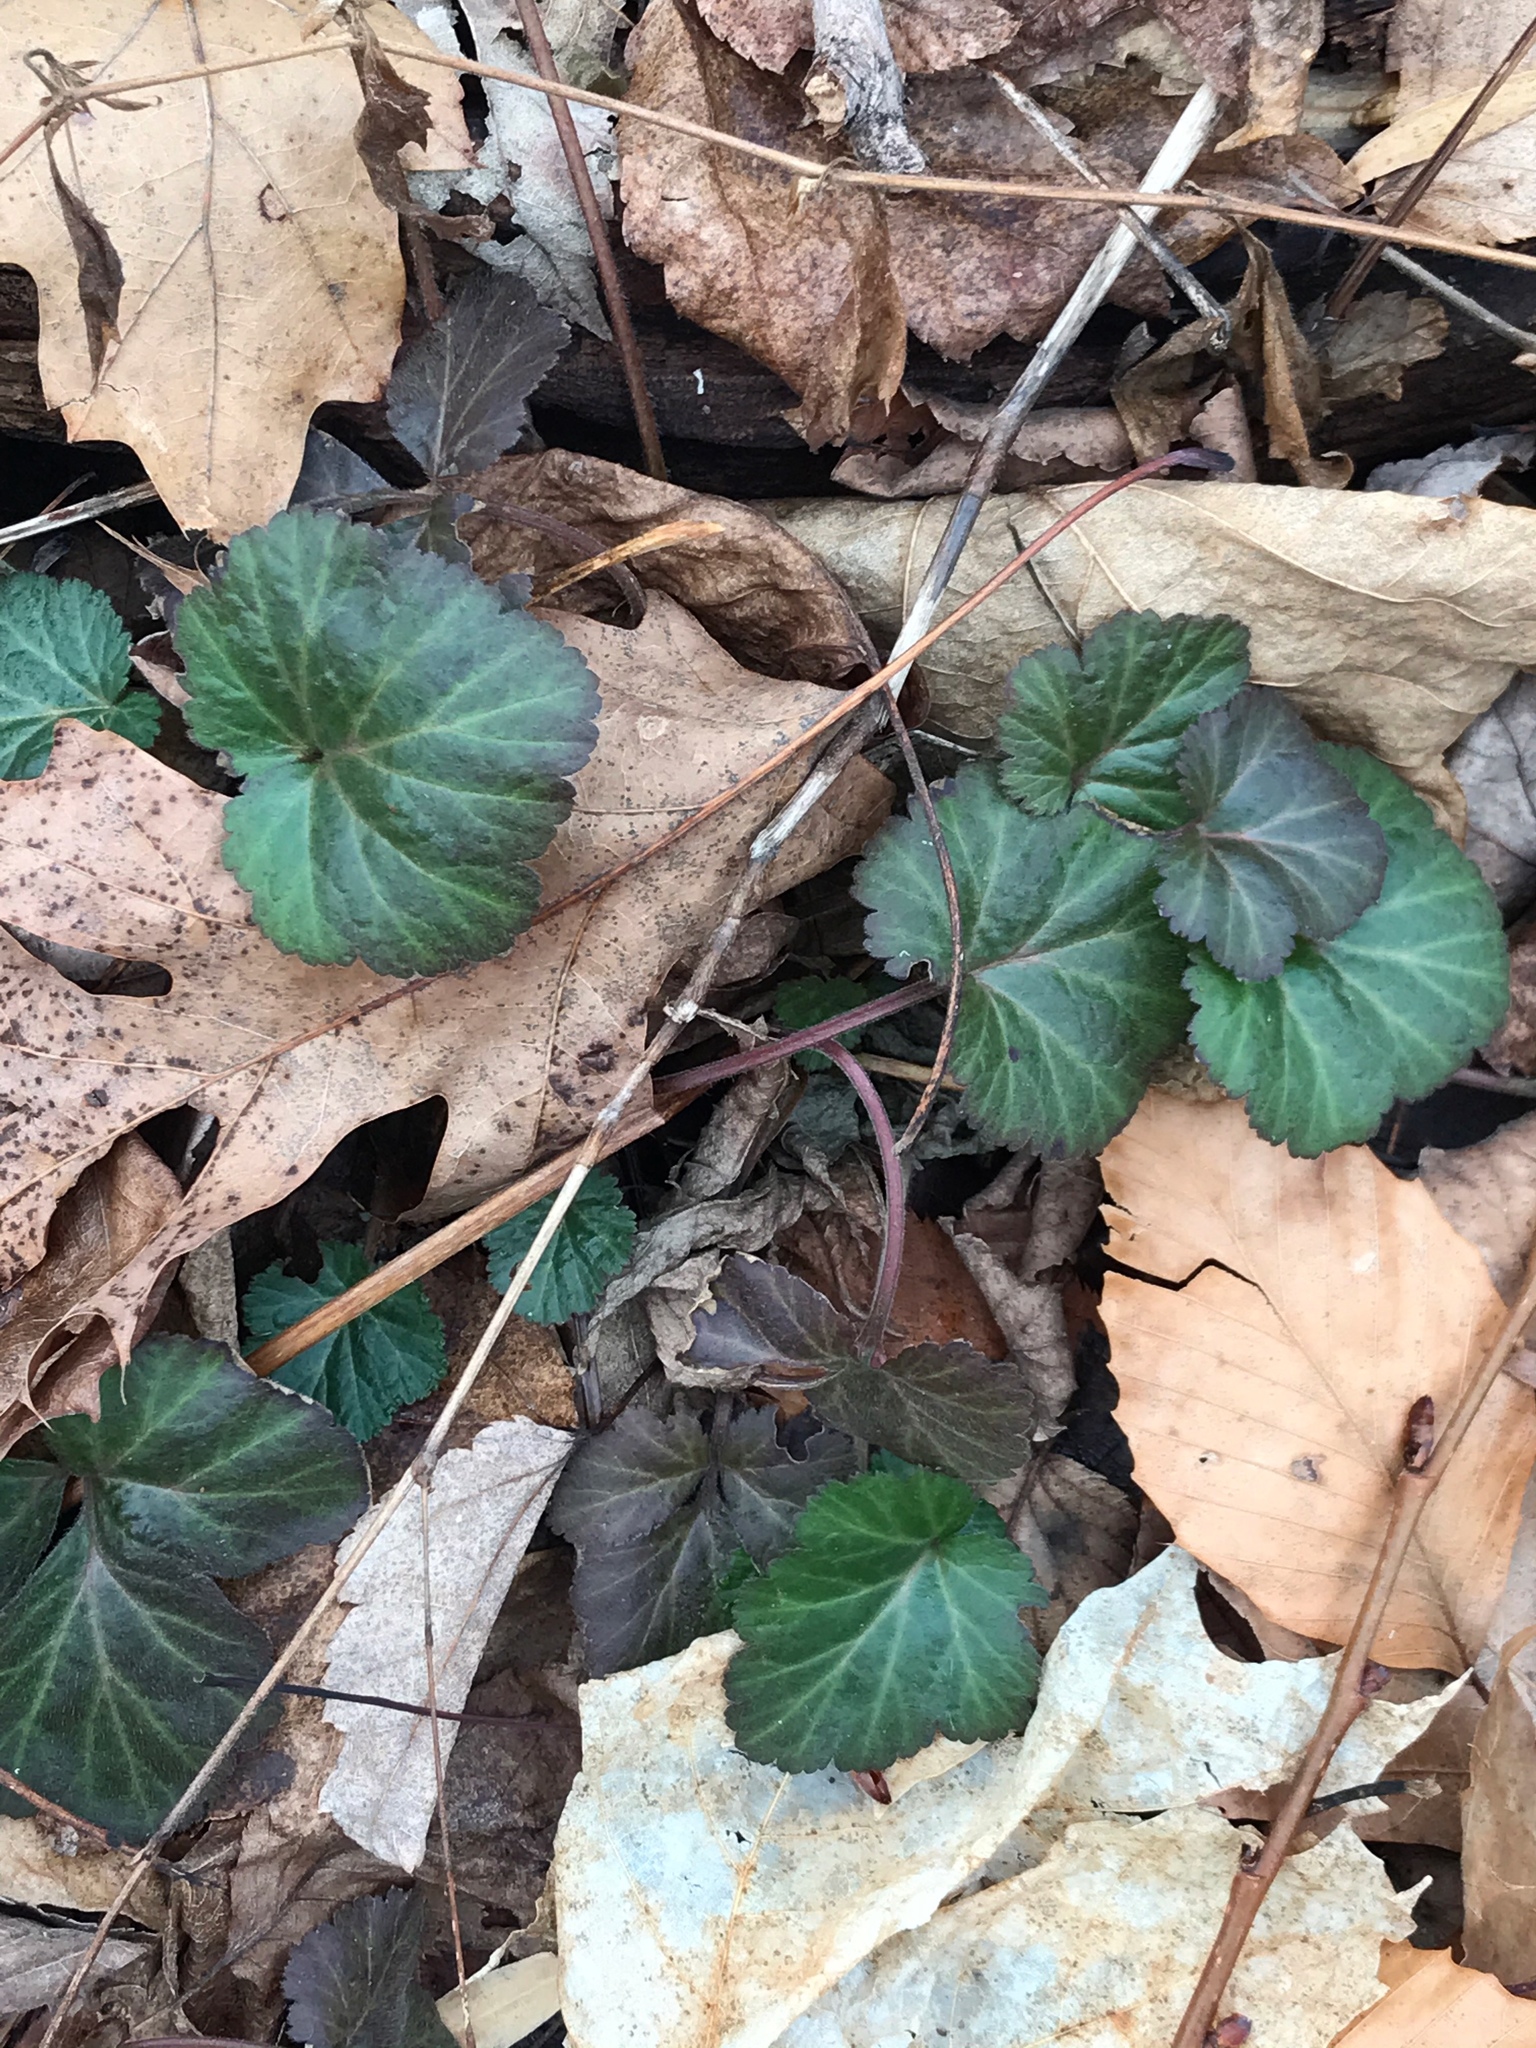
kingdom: Plantae
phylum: Tracheophyta
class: Magnoliopsida
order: Rosales
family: Rosaceae
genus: Geum
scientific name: Geum canadense
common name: White avens
